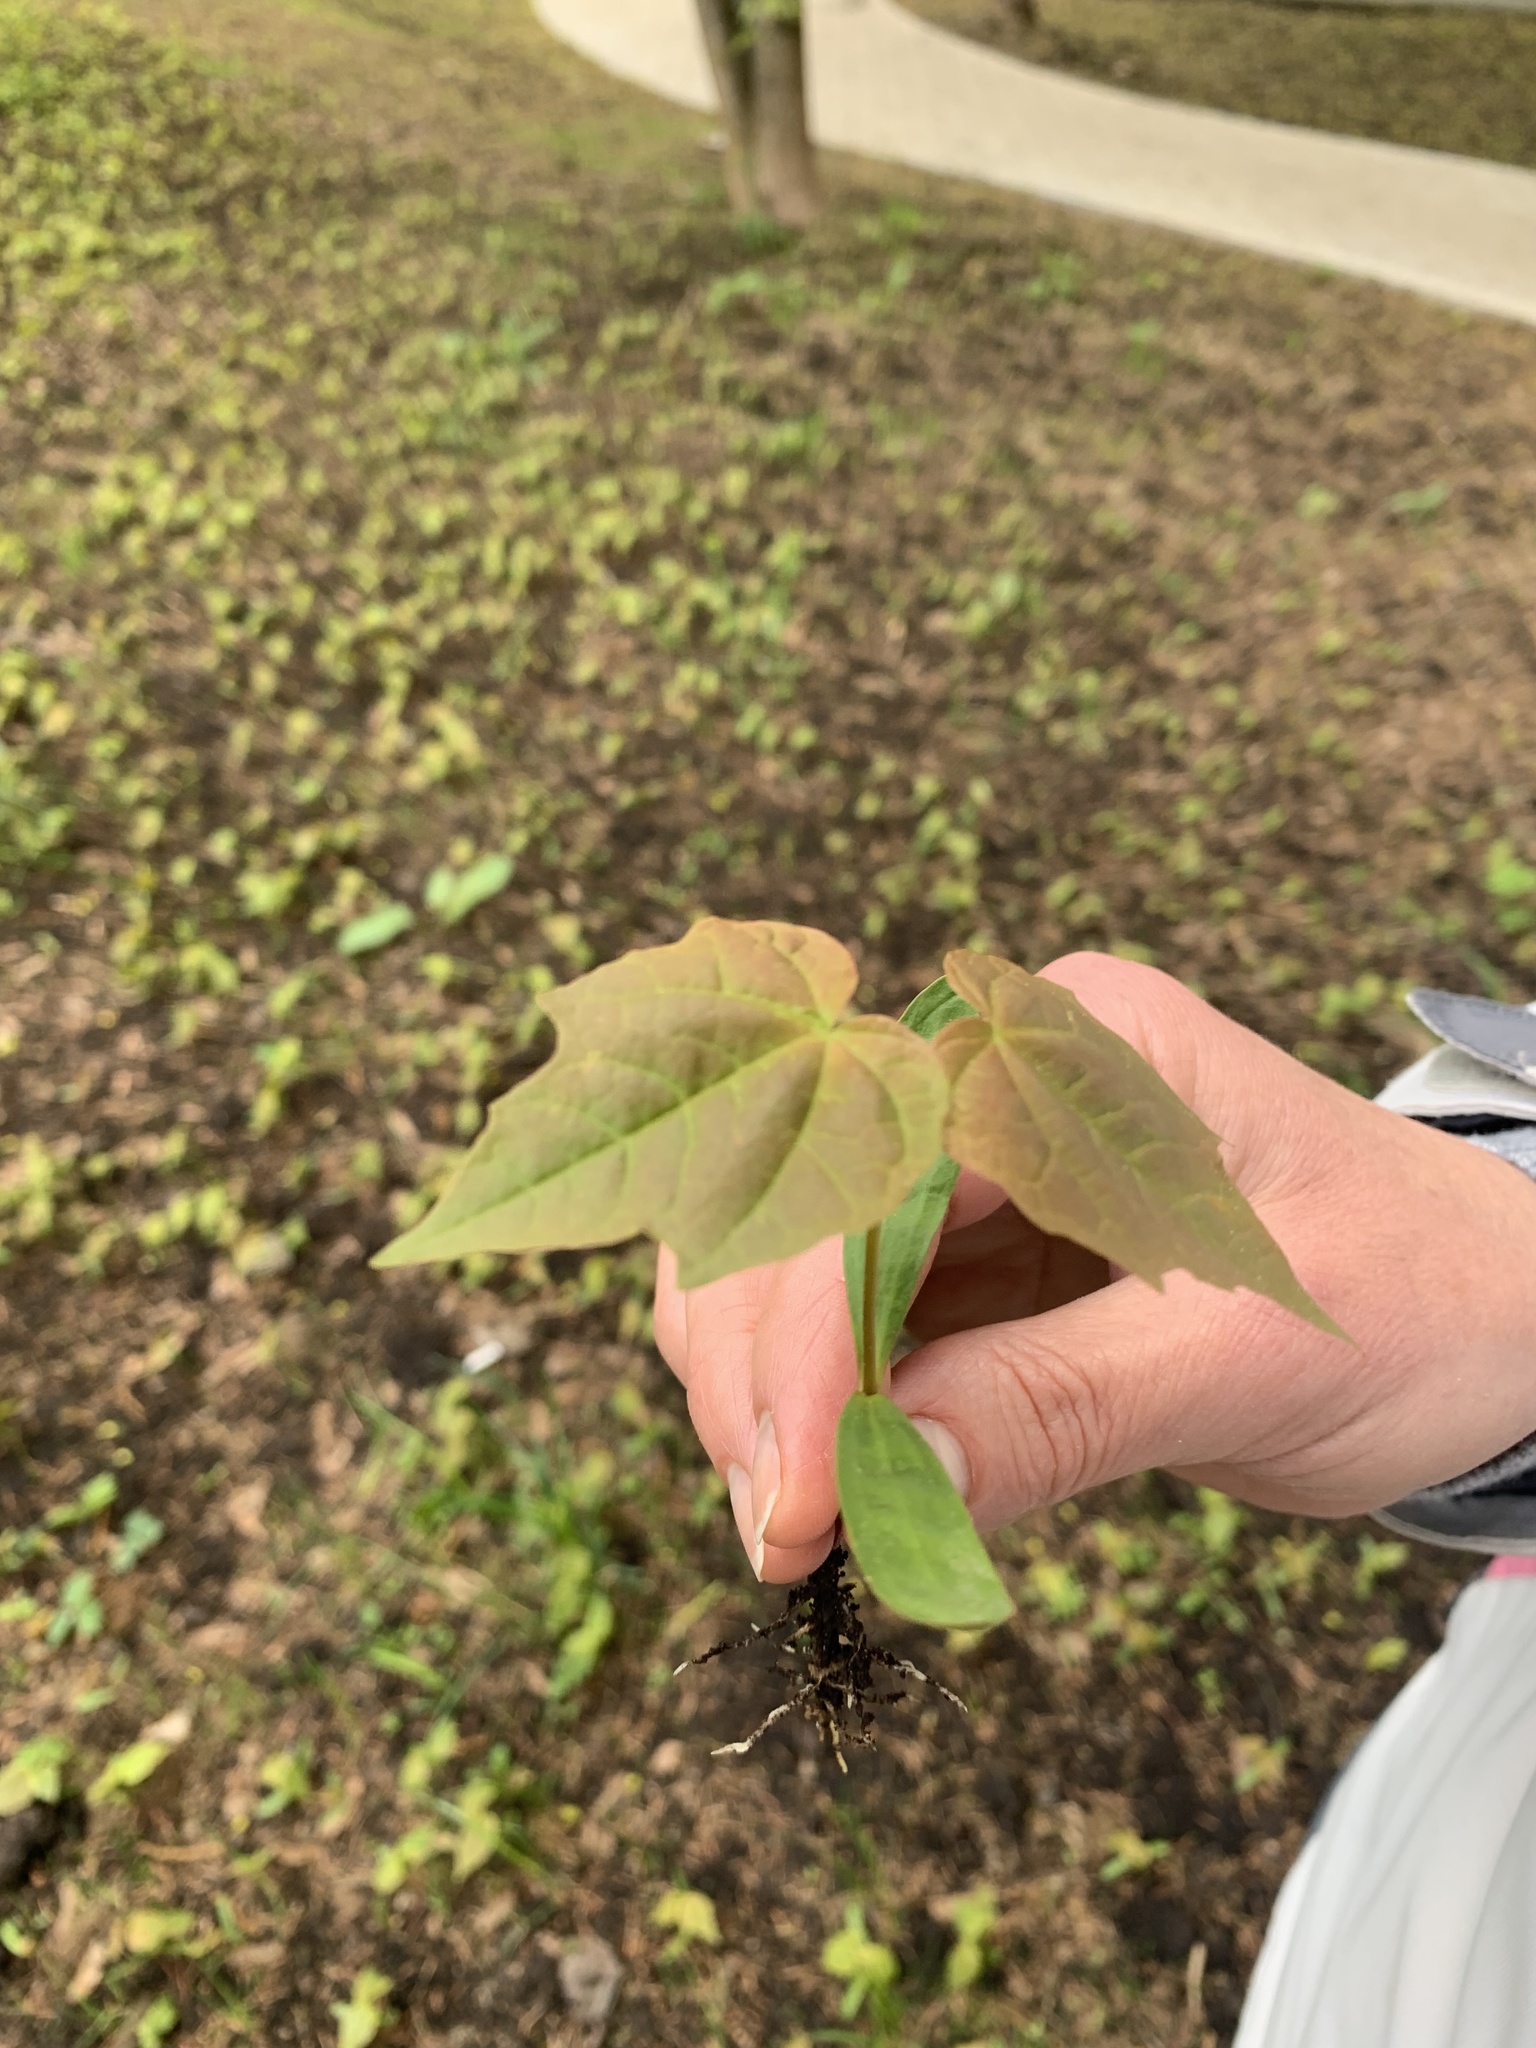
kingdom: Plantae
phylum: Tracheophyta
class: Magnoliopsida
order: Sapindales
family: Sapindaceae
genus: Acer
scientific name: Acer platanoides
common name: Norway maple
